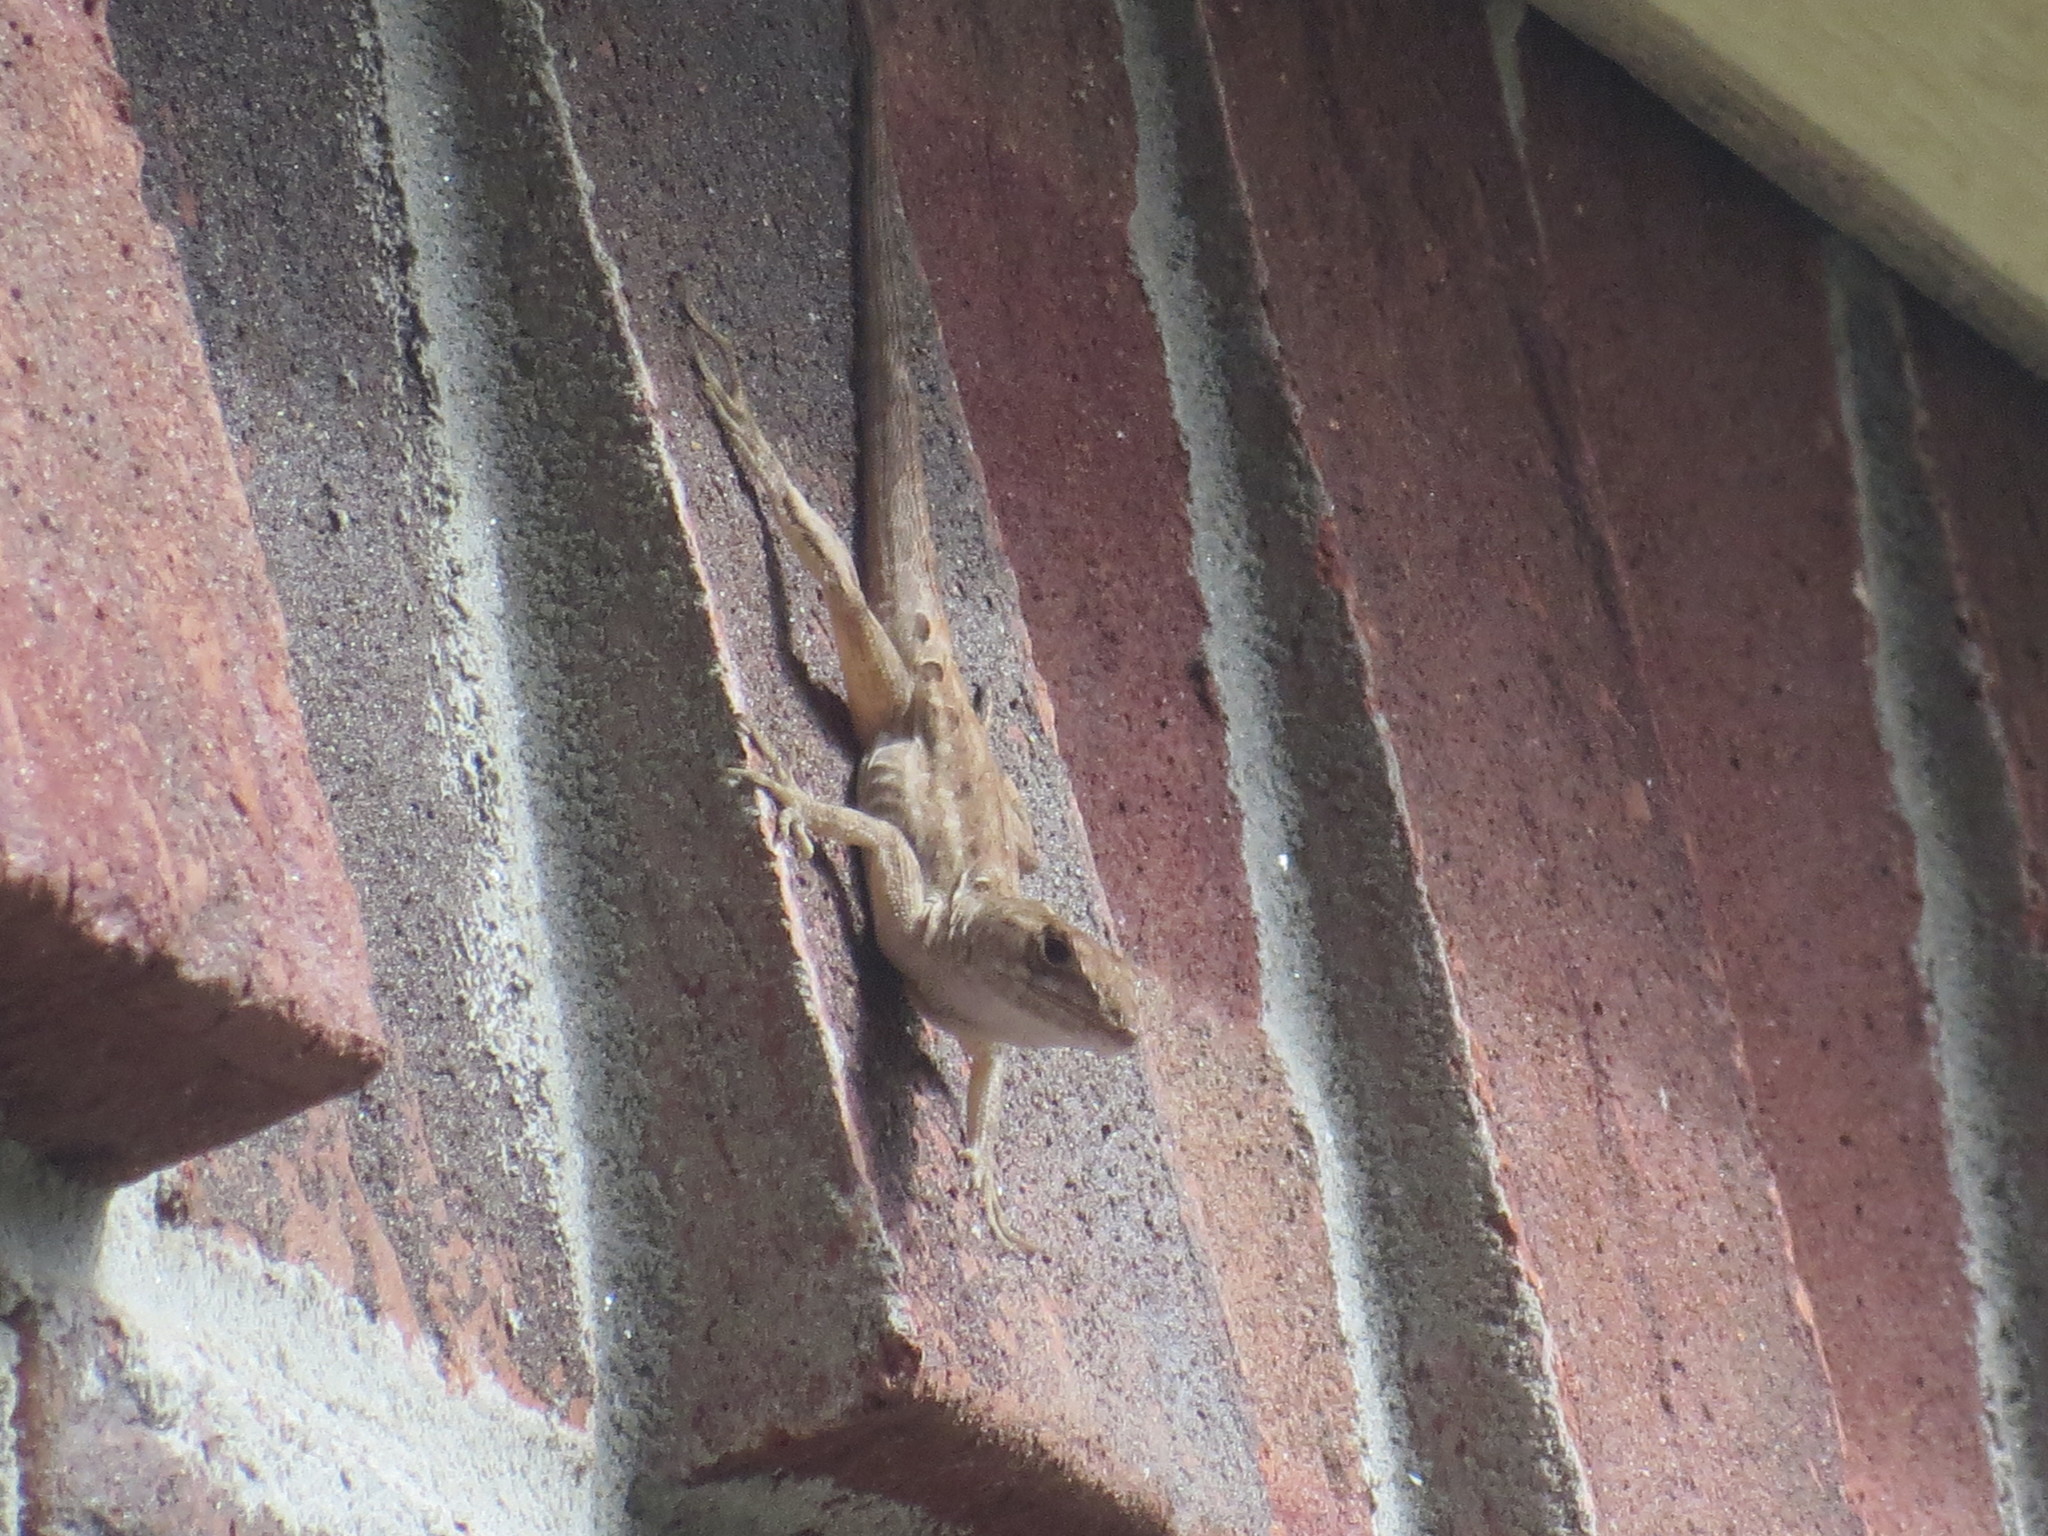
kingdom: Animalia
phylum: Chordata
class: Squamata
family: Dactyloidae
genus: Anolis
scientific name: Anolis sagrei
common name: Brown anole
